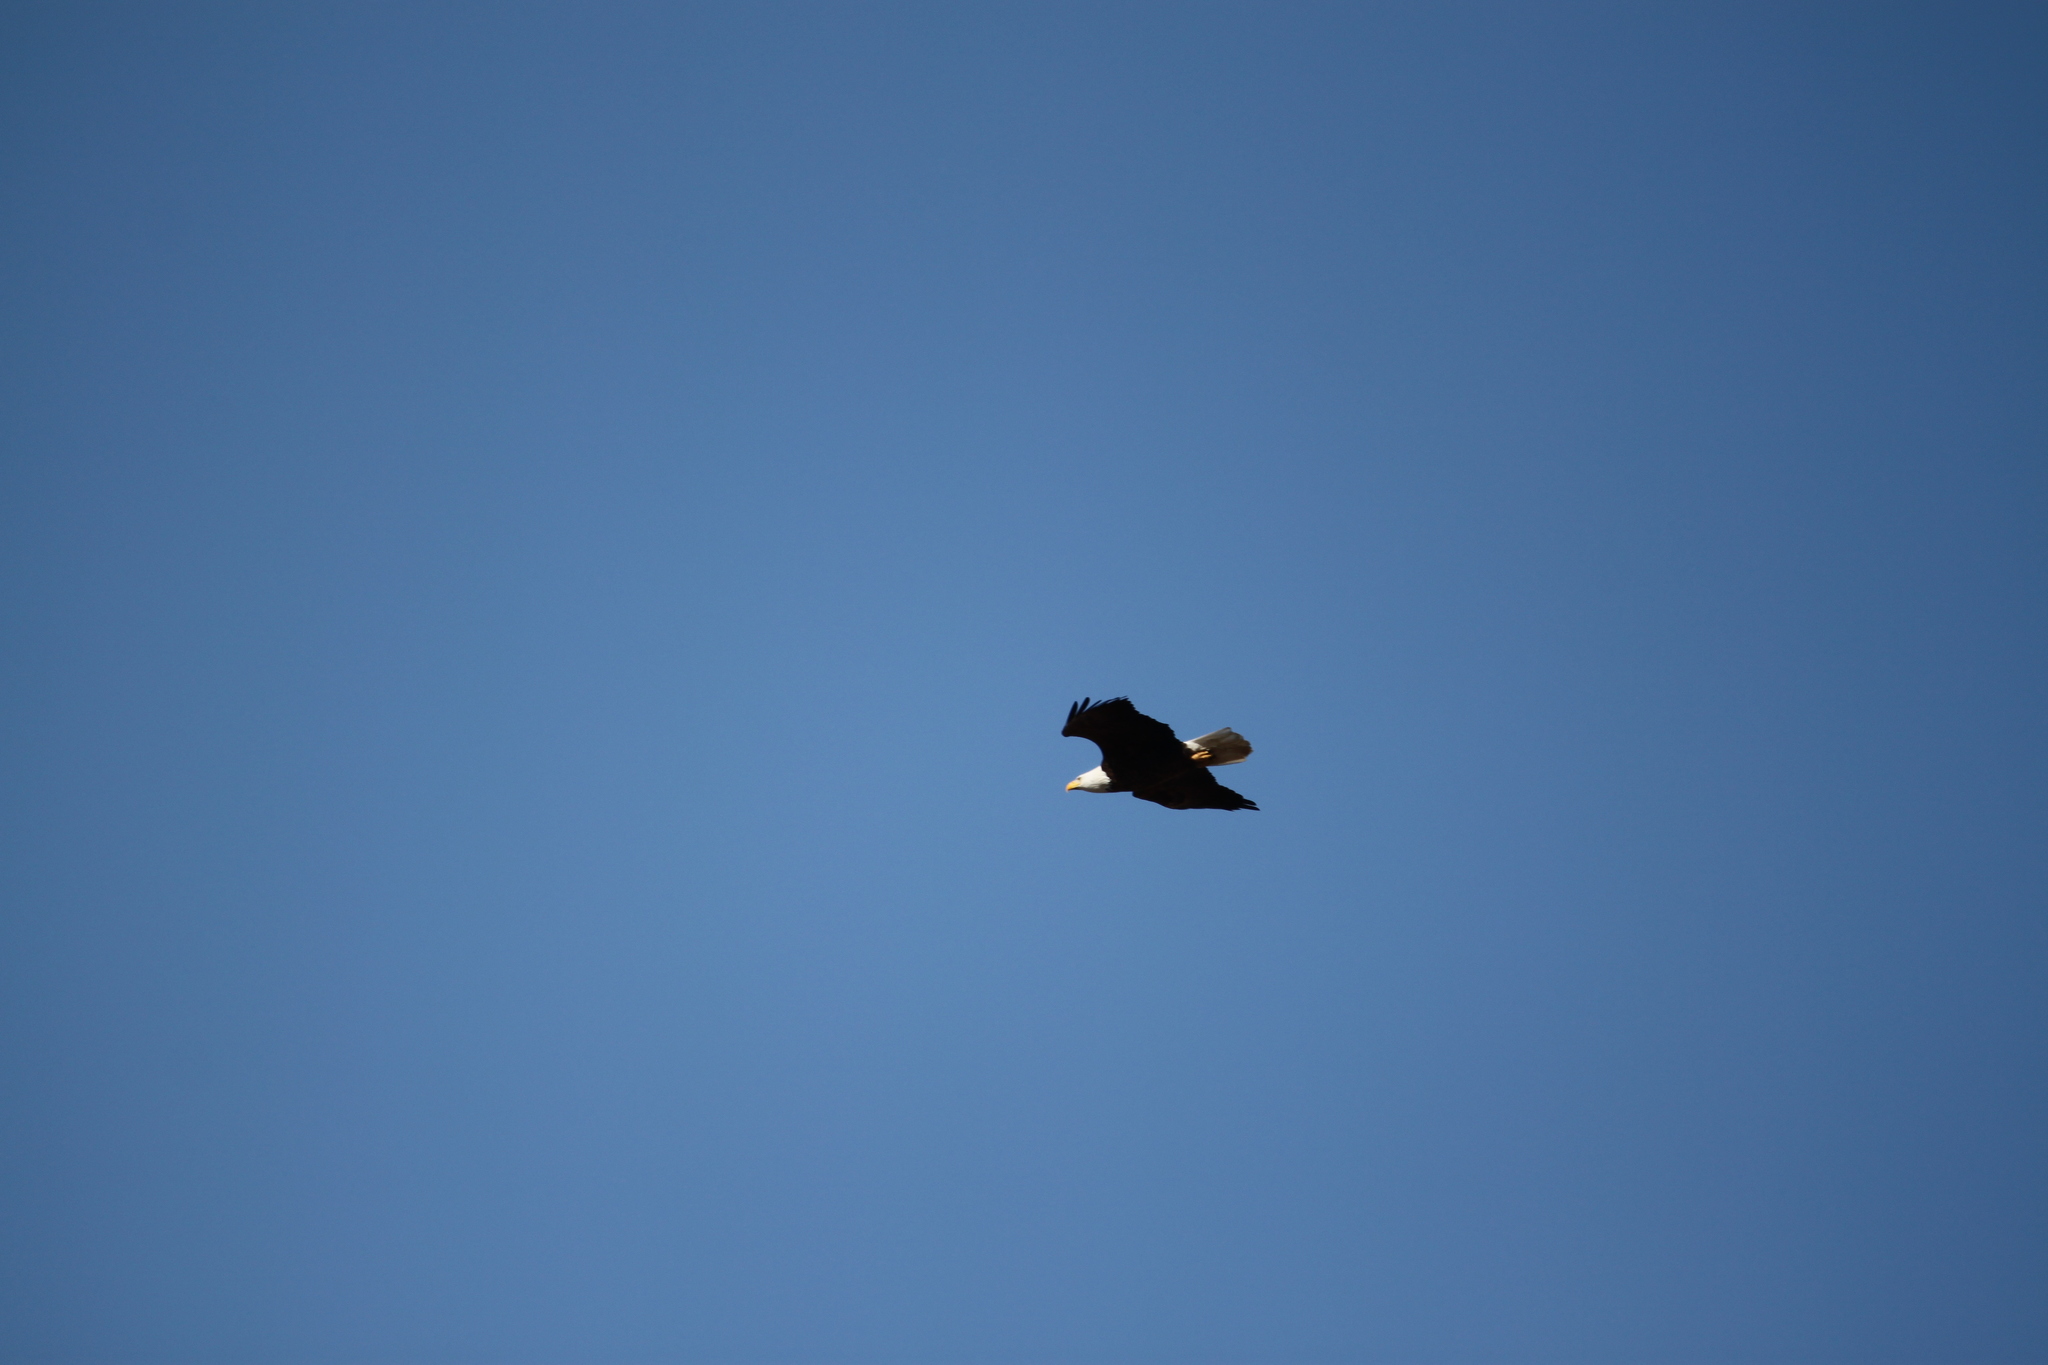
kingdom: Animalia
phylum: Chordata
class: Aves
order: Accipitriformes
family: Accipitridae
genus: Haliaeetus
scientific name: Haliaeetus leucocephalus
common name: Bald eagle
